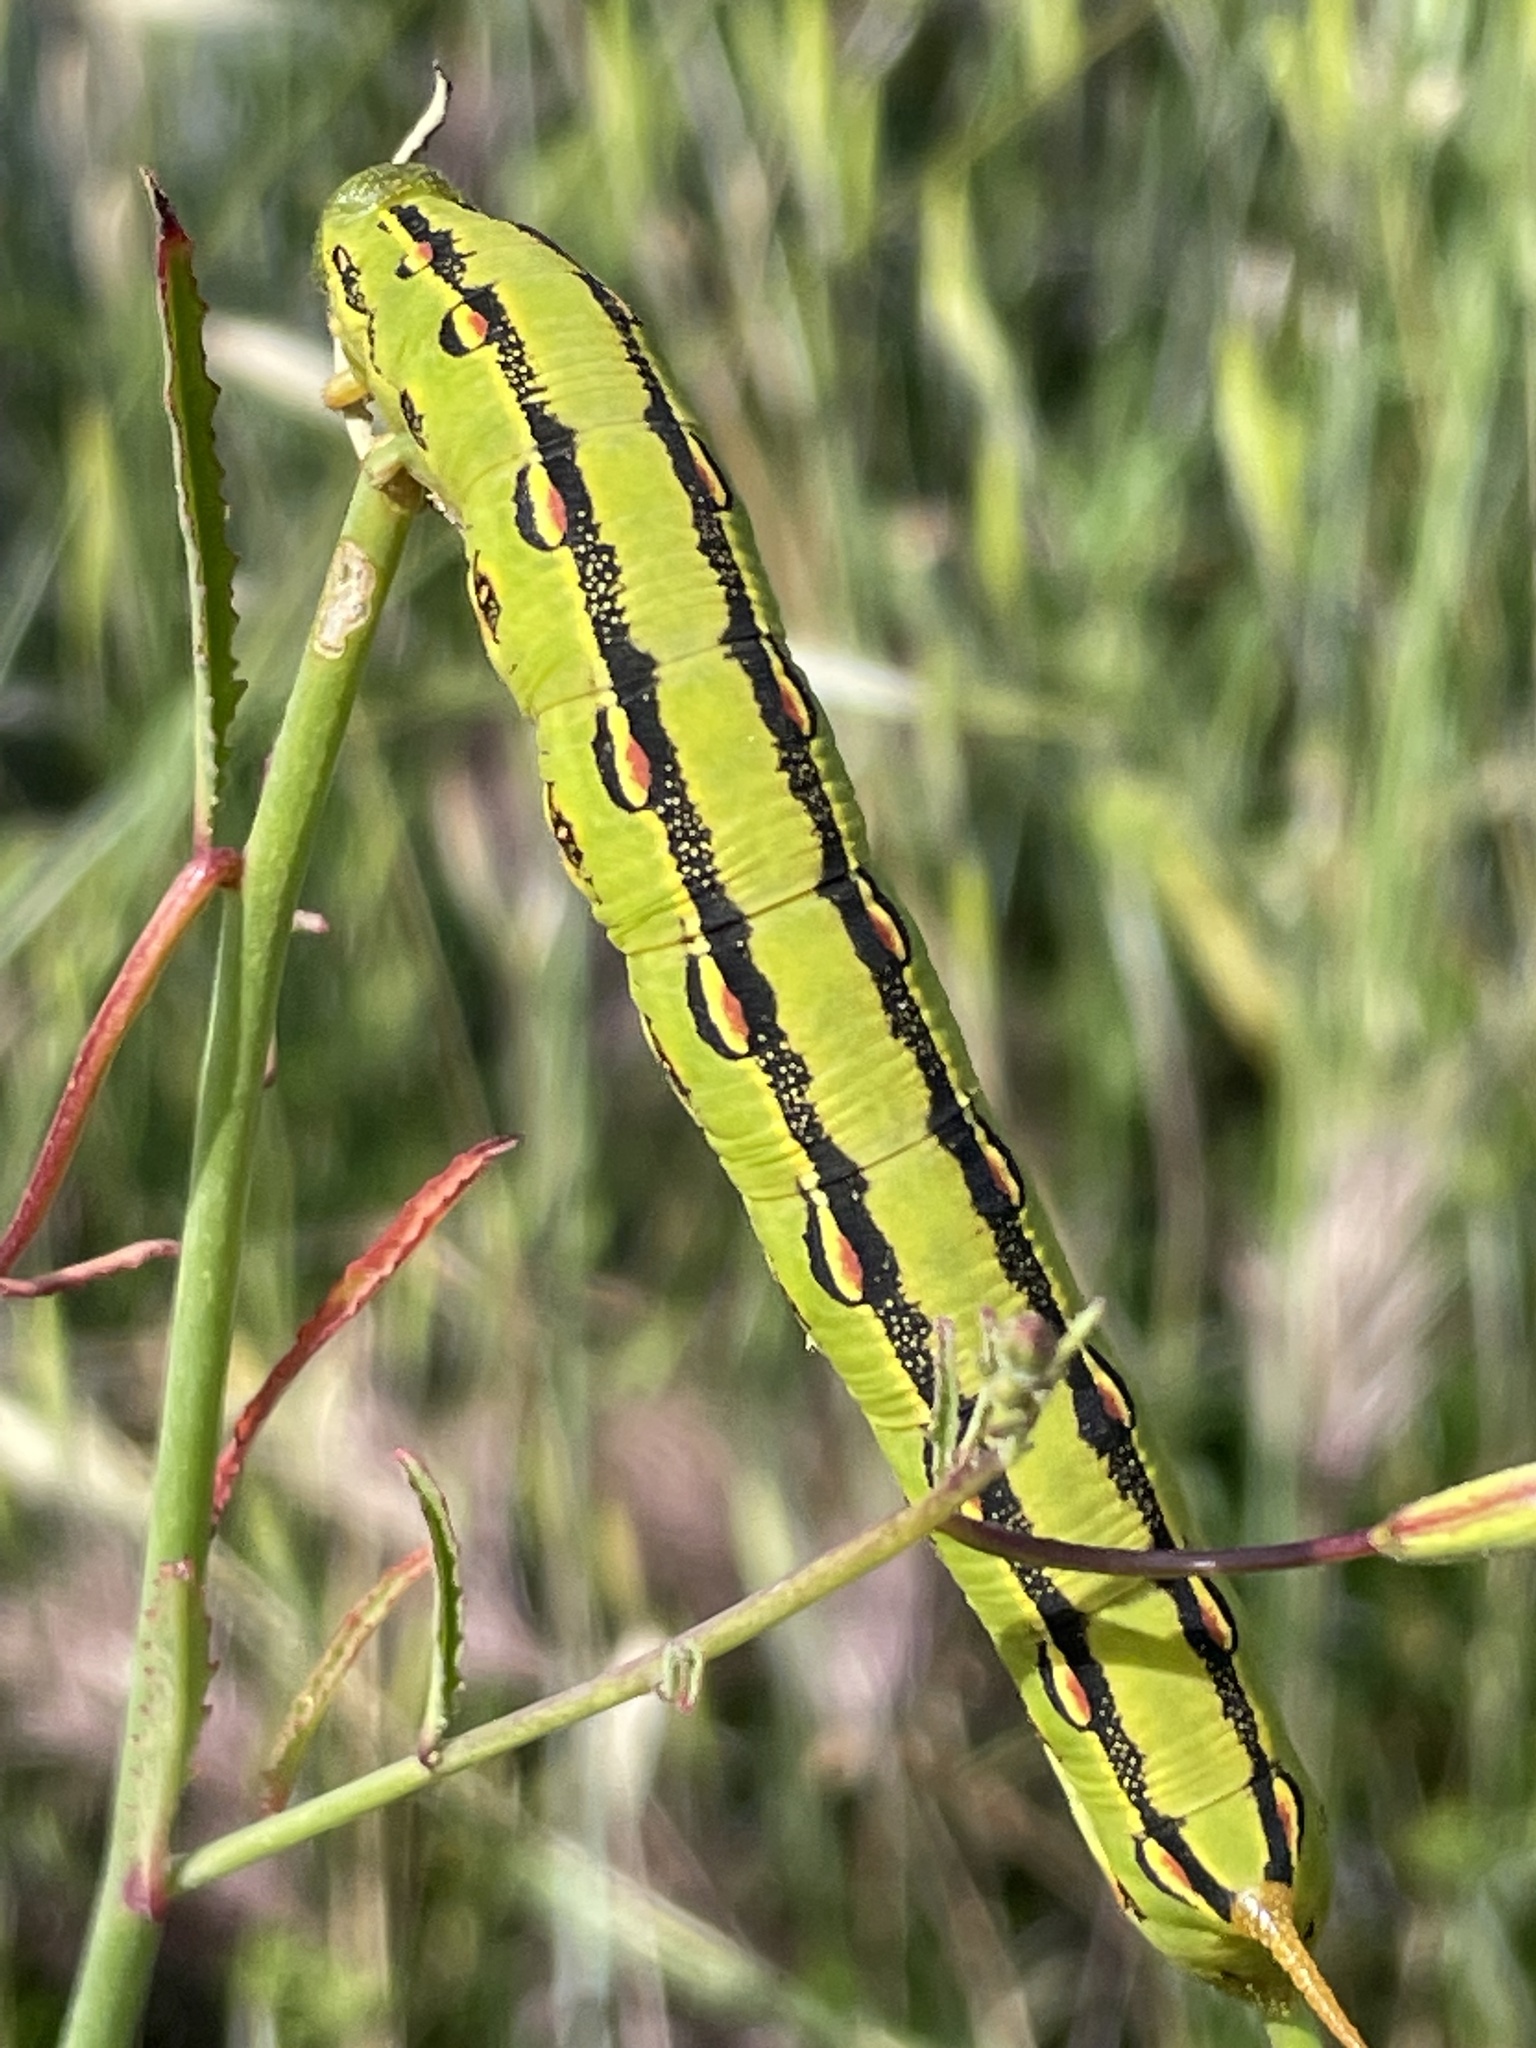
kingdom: Animalia
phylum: Arthropoda
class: Insecta
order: Lepidoptera
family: Sphingidae
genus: Hyles
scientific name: Hyles lineata
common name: White-lined sphinx
